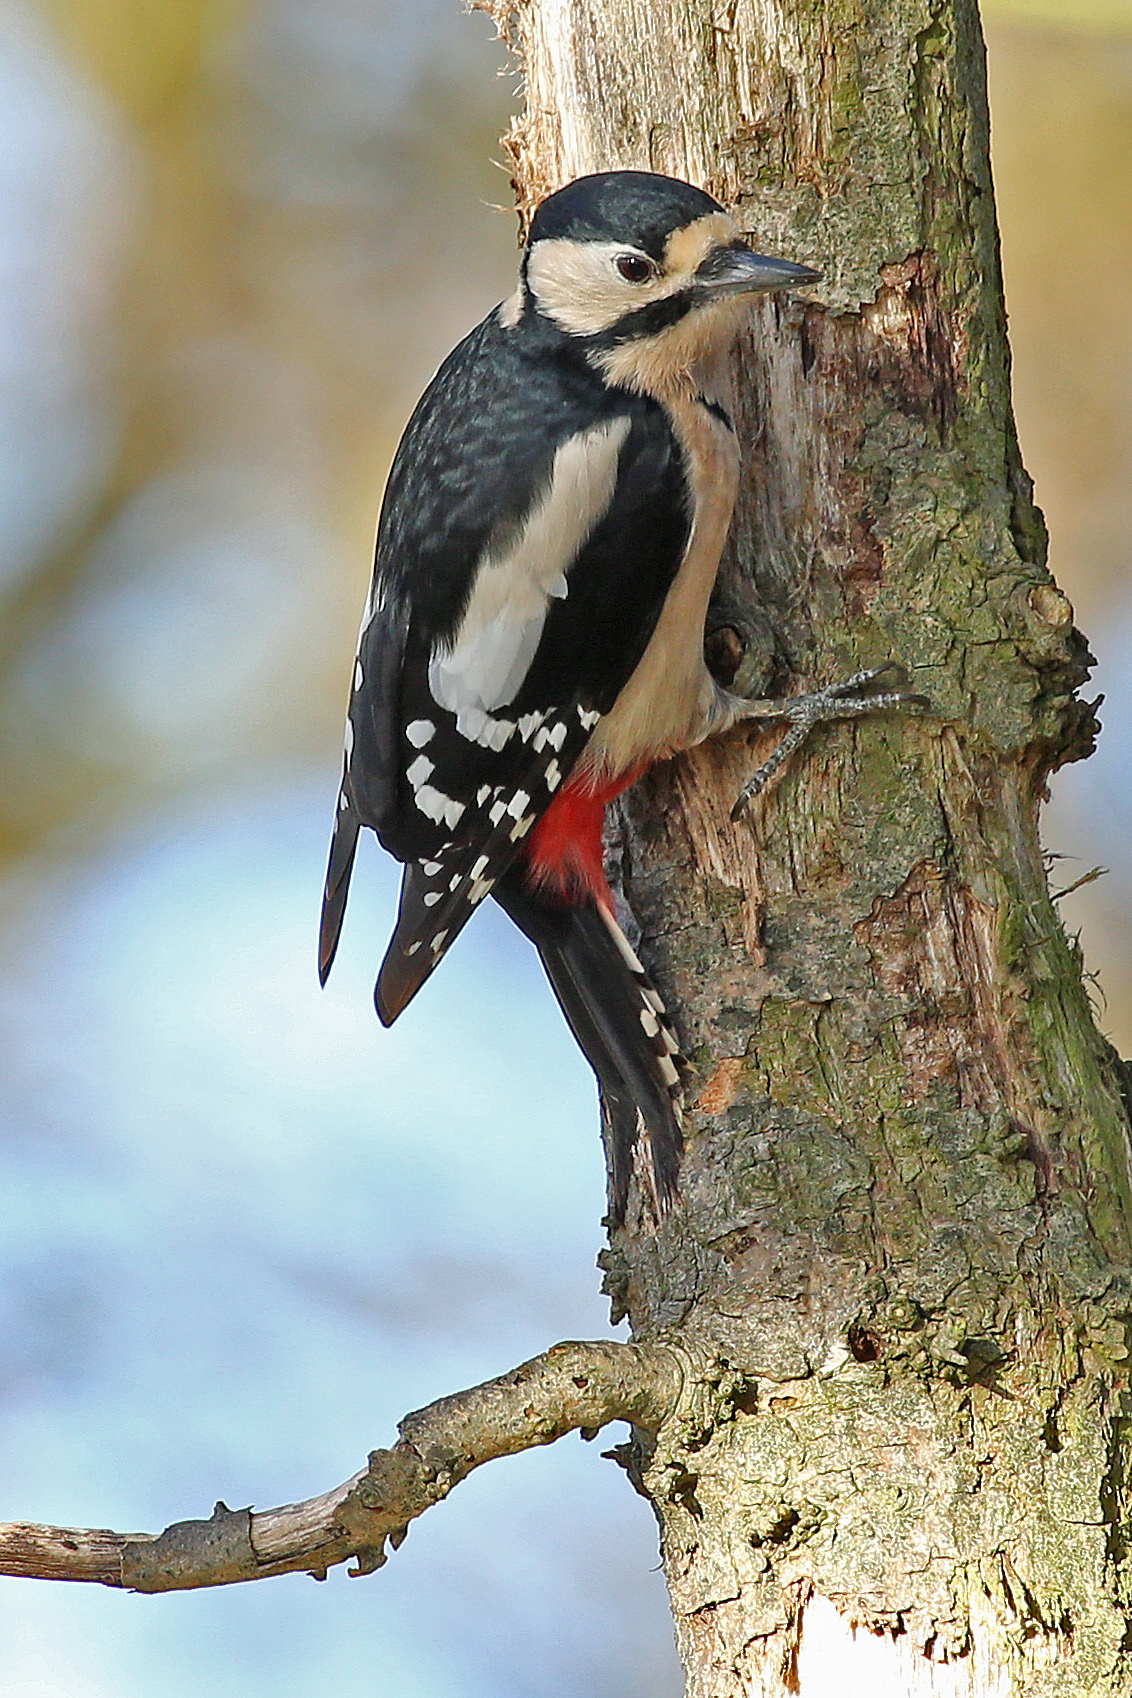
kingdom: Animalia
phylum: Chordata
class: Aves
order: Piciformes
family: Picidae
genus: Dendrocopos
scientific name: Dendrocopos major
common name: Great spotted woodpecker
